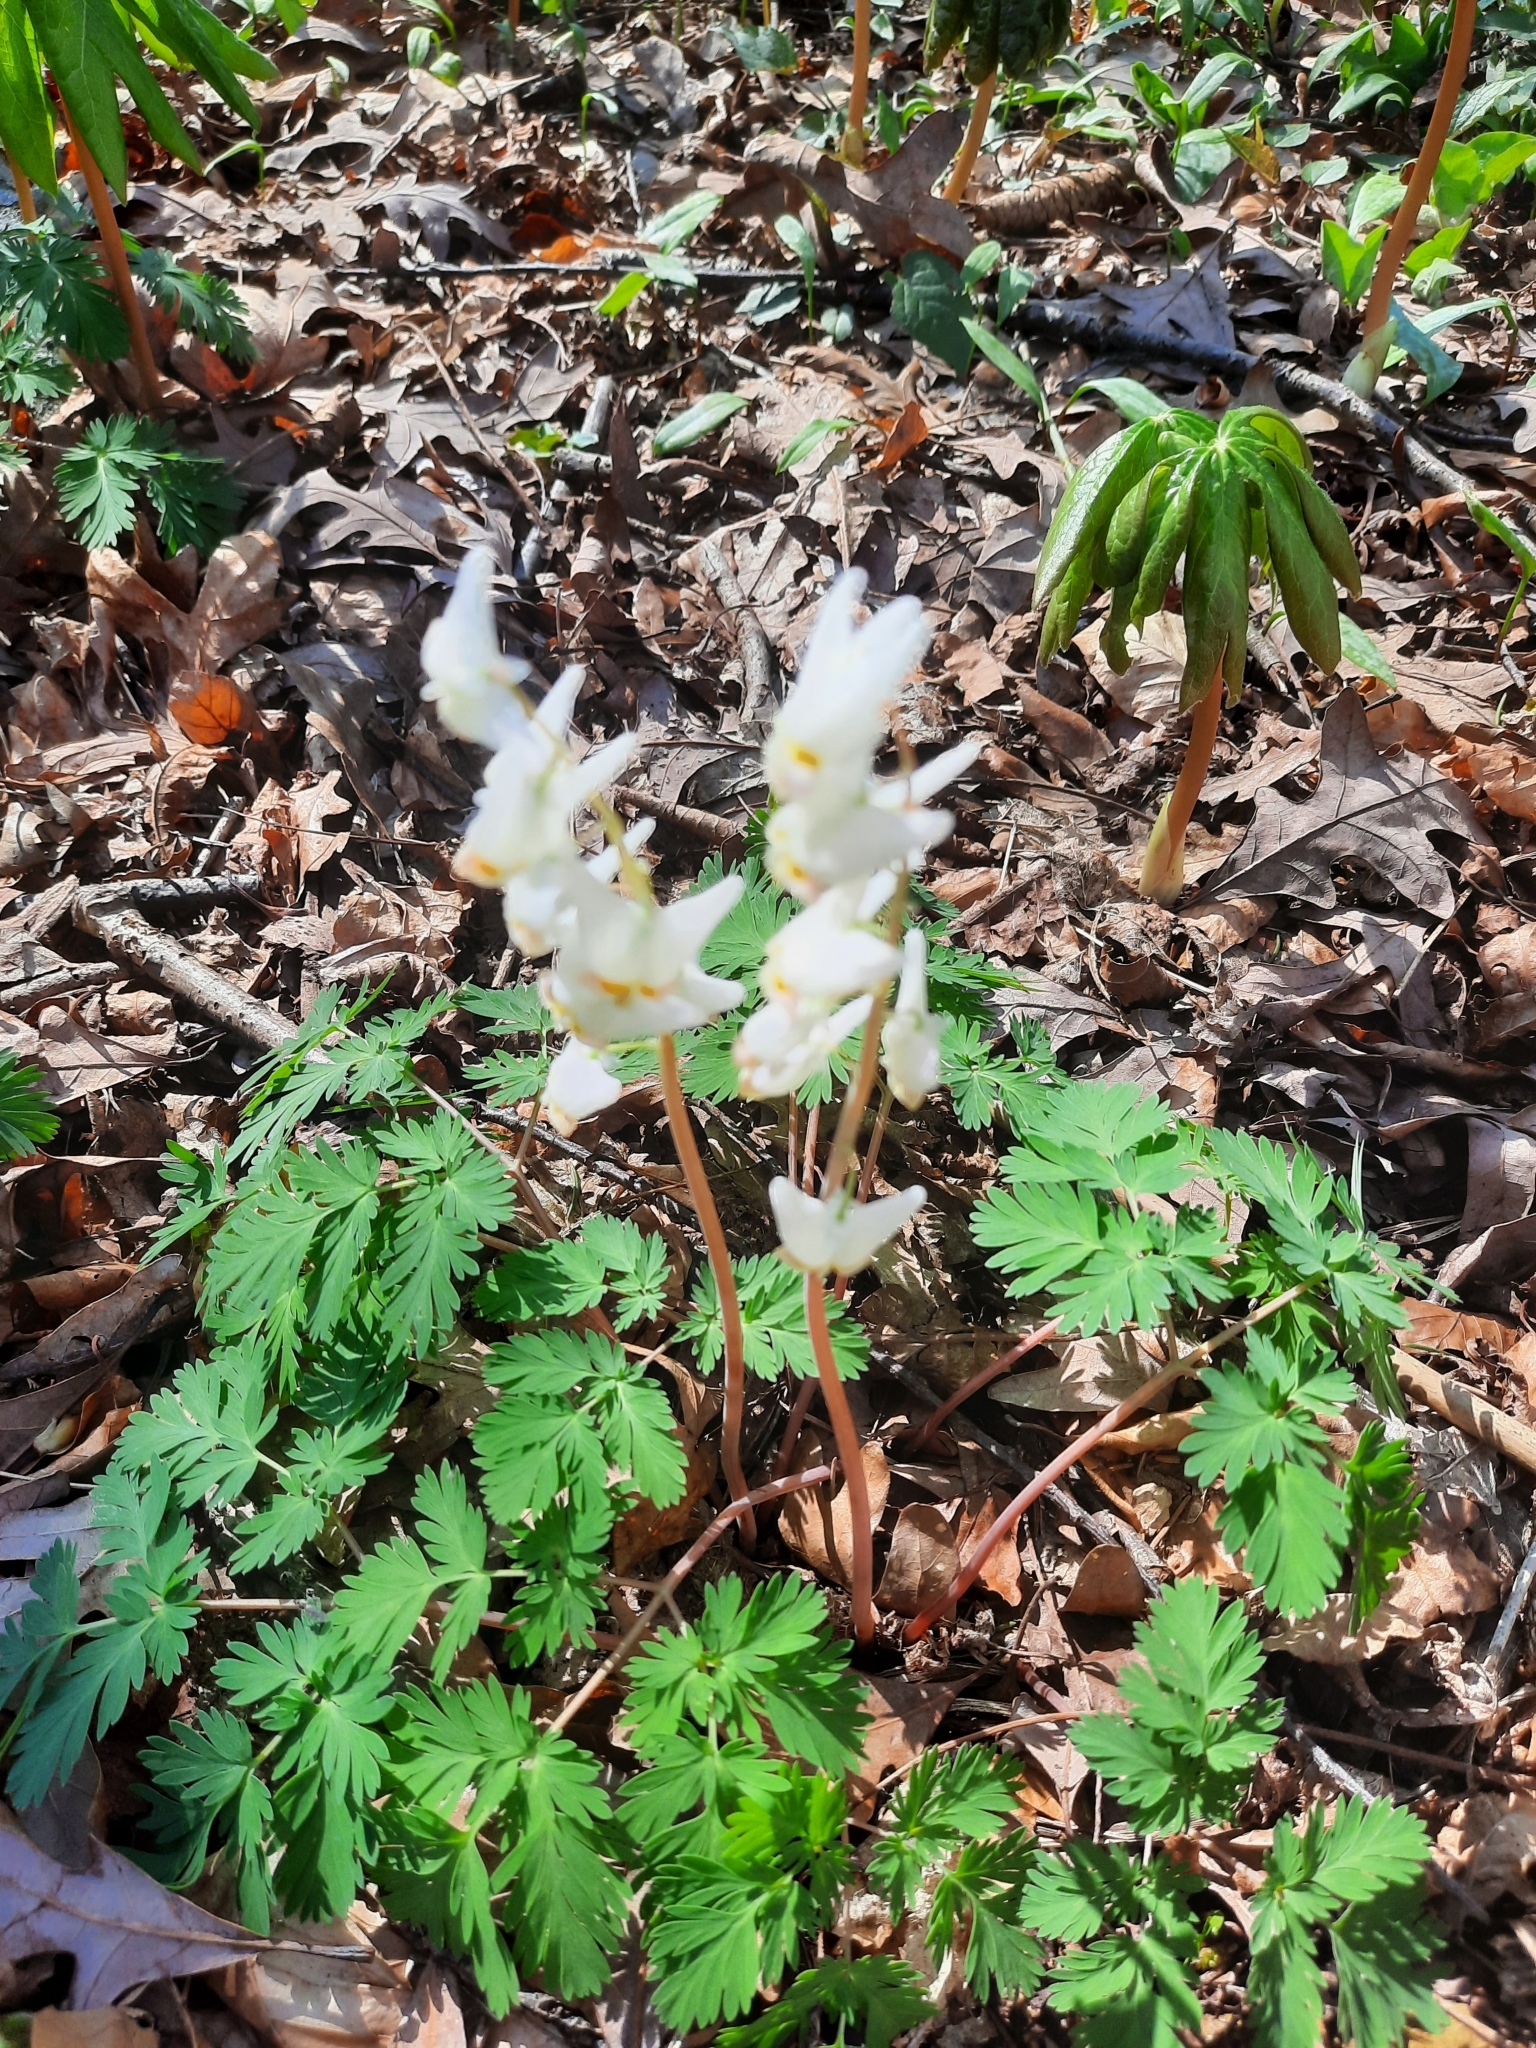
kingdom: Plantae
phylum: Tracheophyta
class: Magnoliopsida
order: Ranunculales
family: Papaveraceae
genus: Dicentra
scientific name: Dicentra cucullaria
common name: Dutchman's breeches
